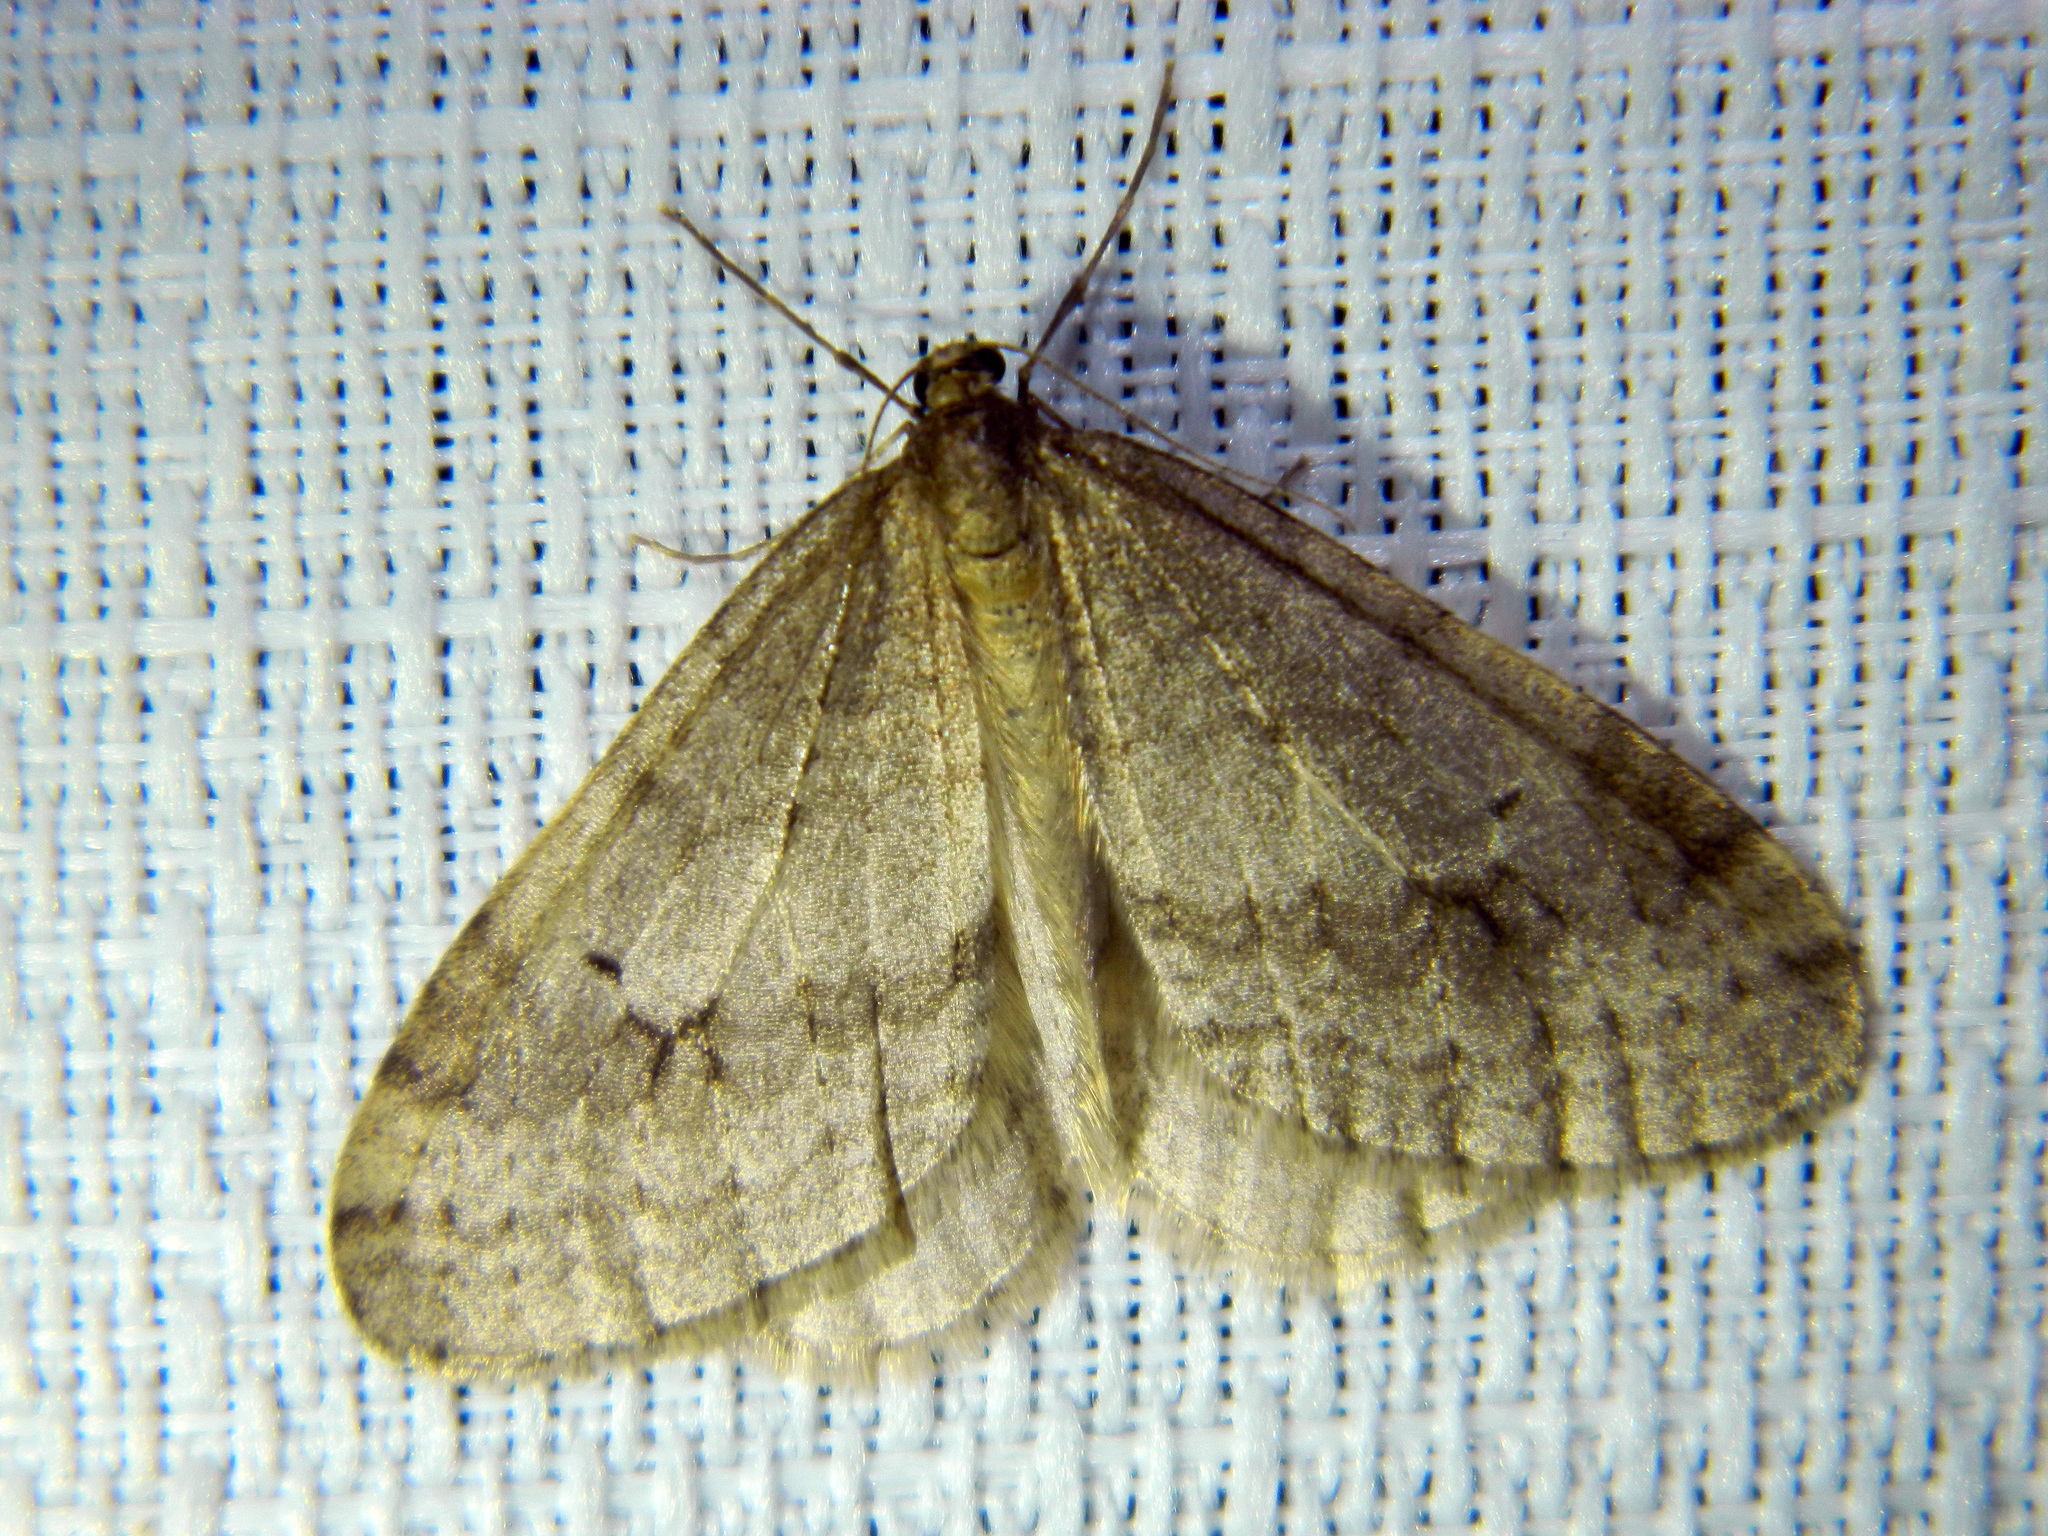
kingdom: Animalia
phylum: Arthropoda
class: Insecta
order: Lepidoptera
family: Geometridae
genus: Operophtera
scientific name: Operophtera bruceata
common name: Bruce spanworm
